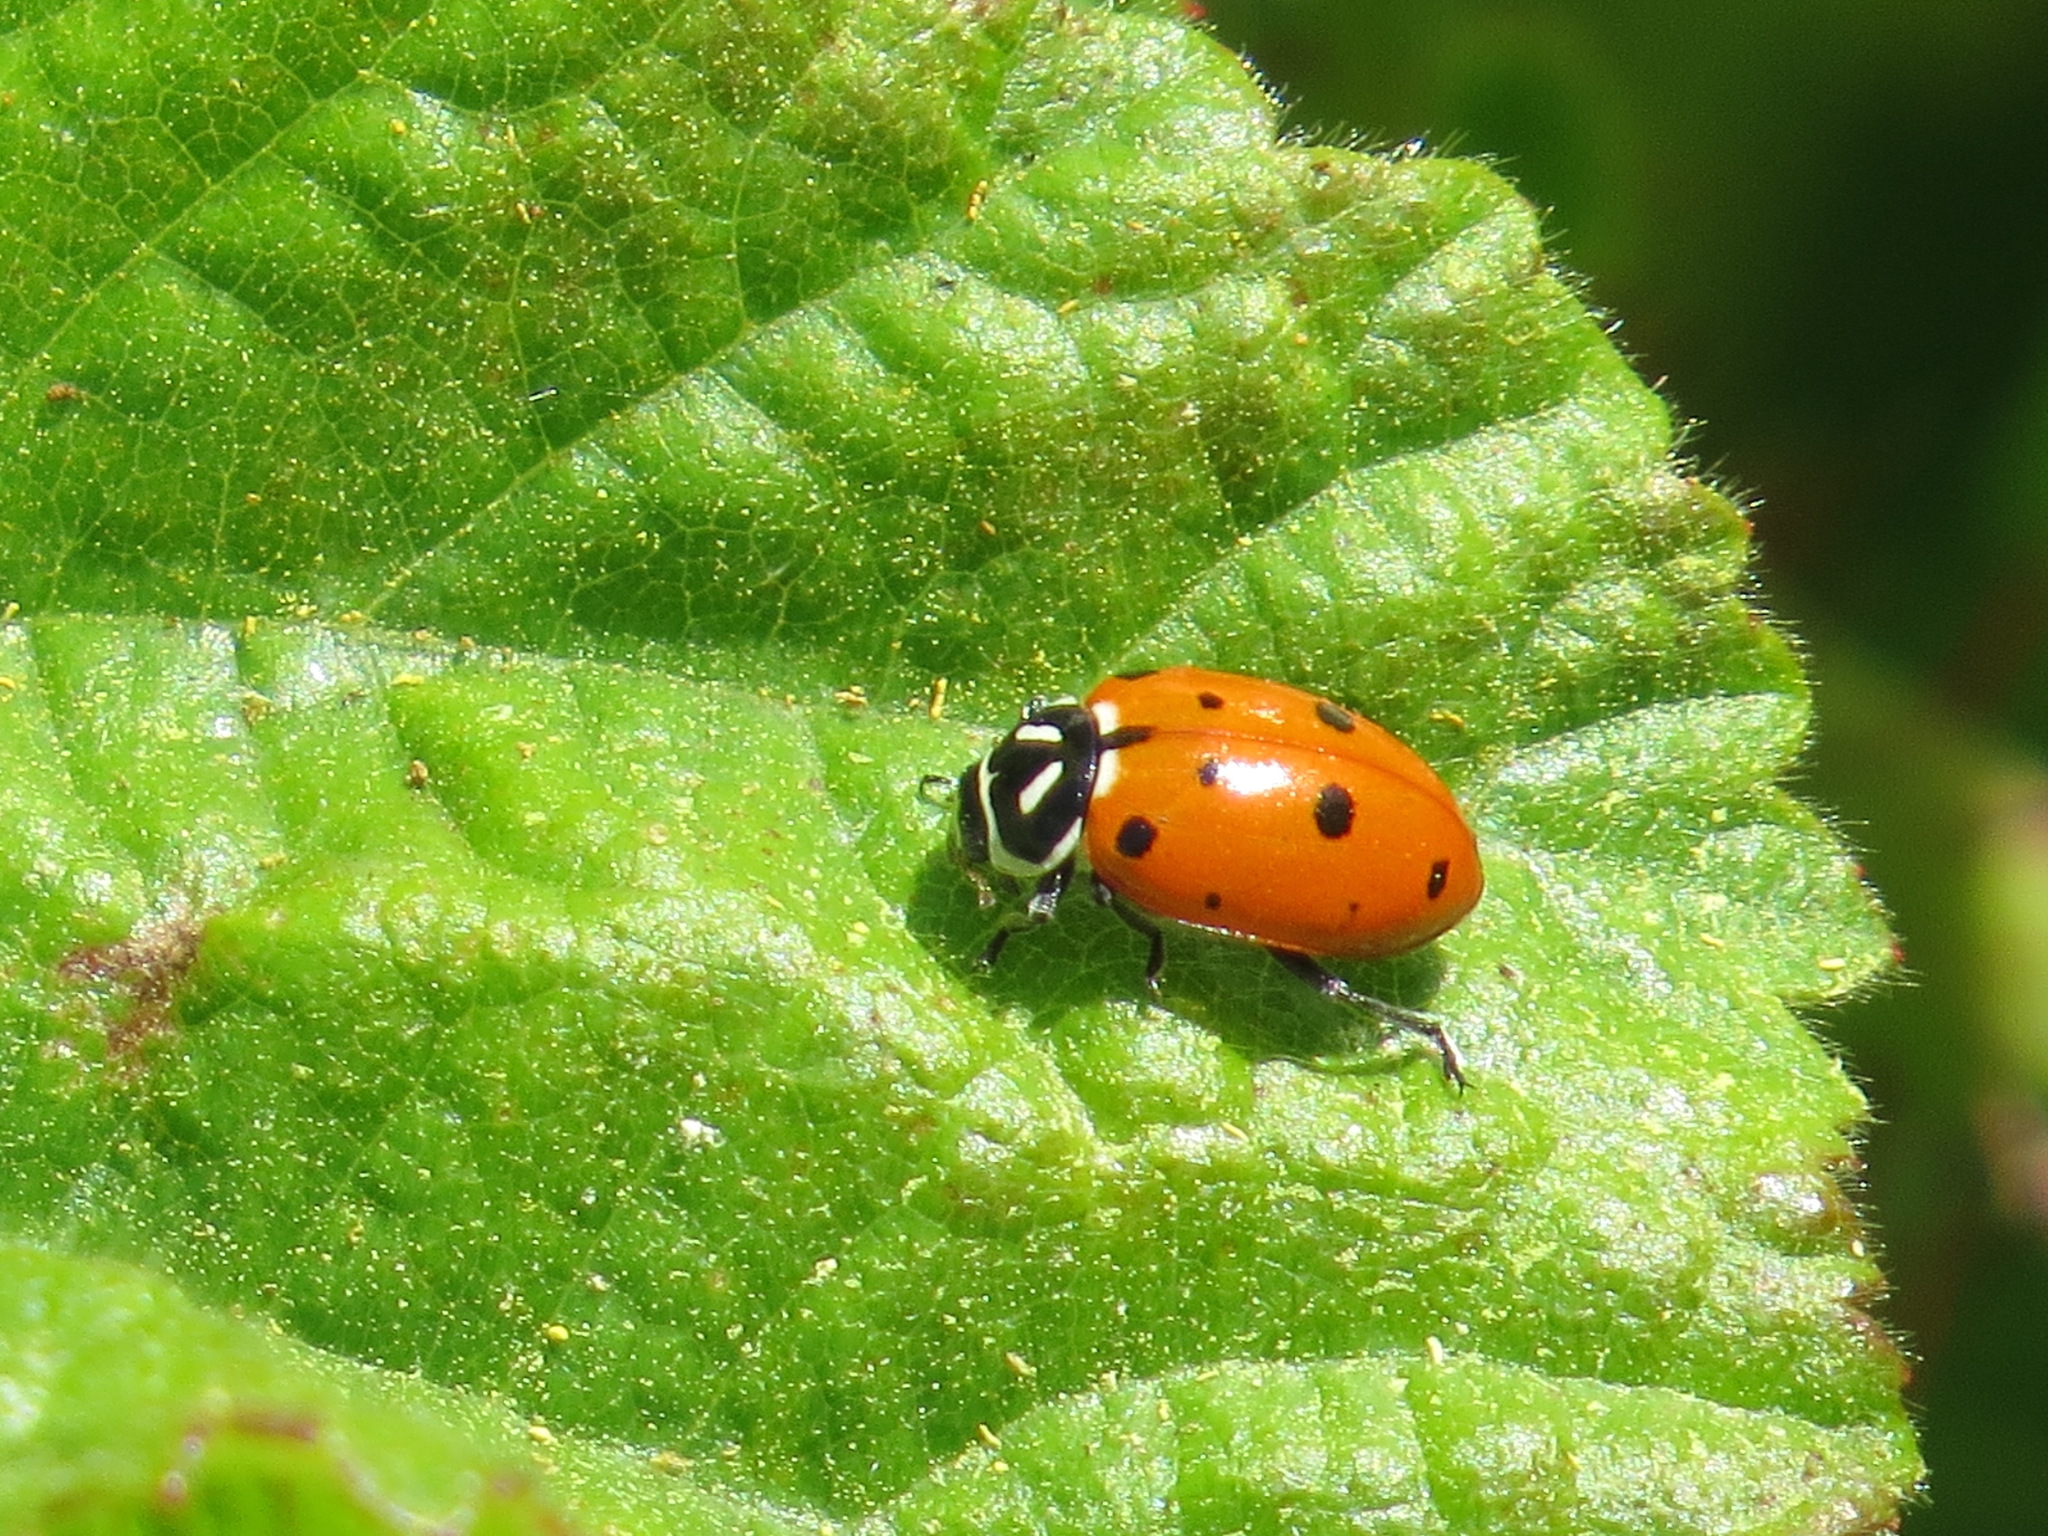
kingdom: Animalia
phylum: Arthropoda
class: Insecta
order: Coleoptera
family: Coccinellidae
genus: Hippodamia
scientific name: Hippodamia convergens
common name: Convergent lady beetle
